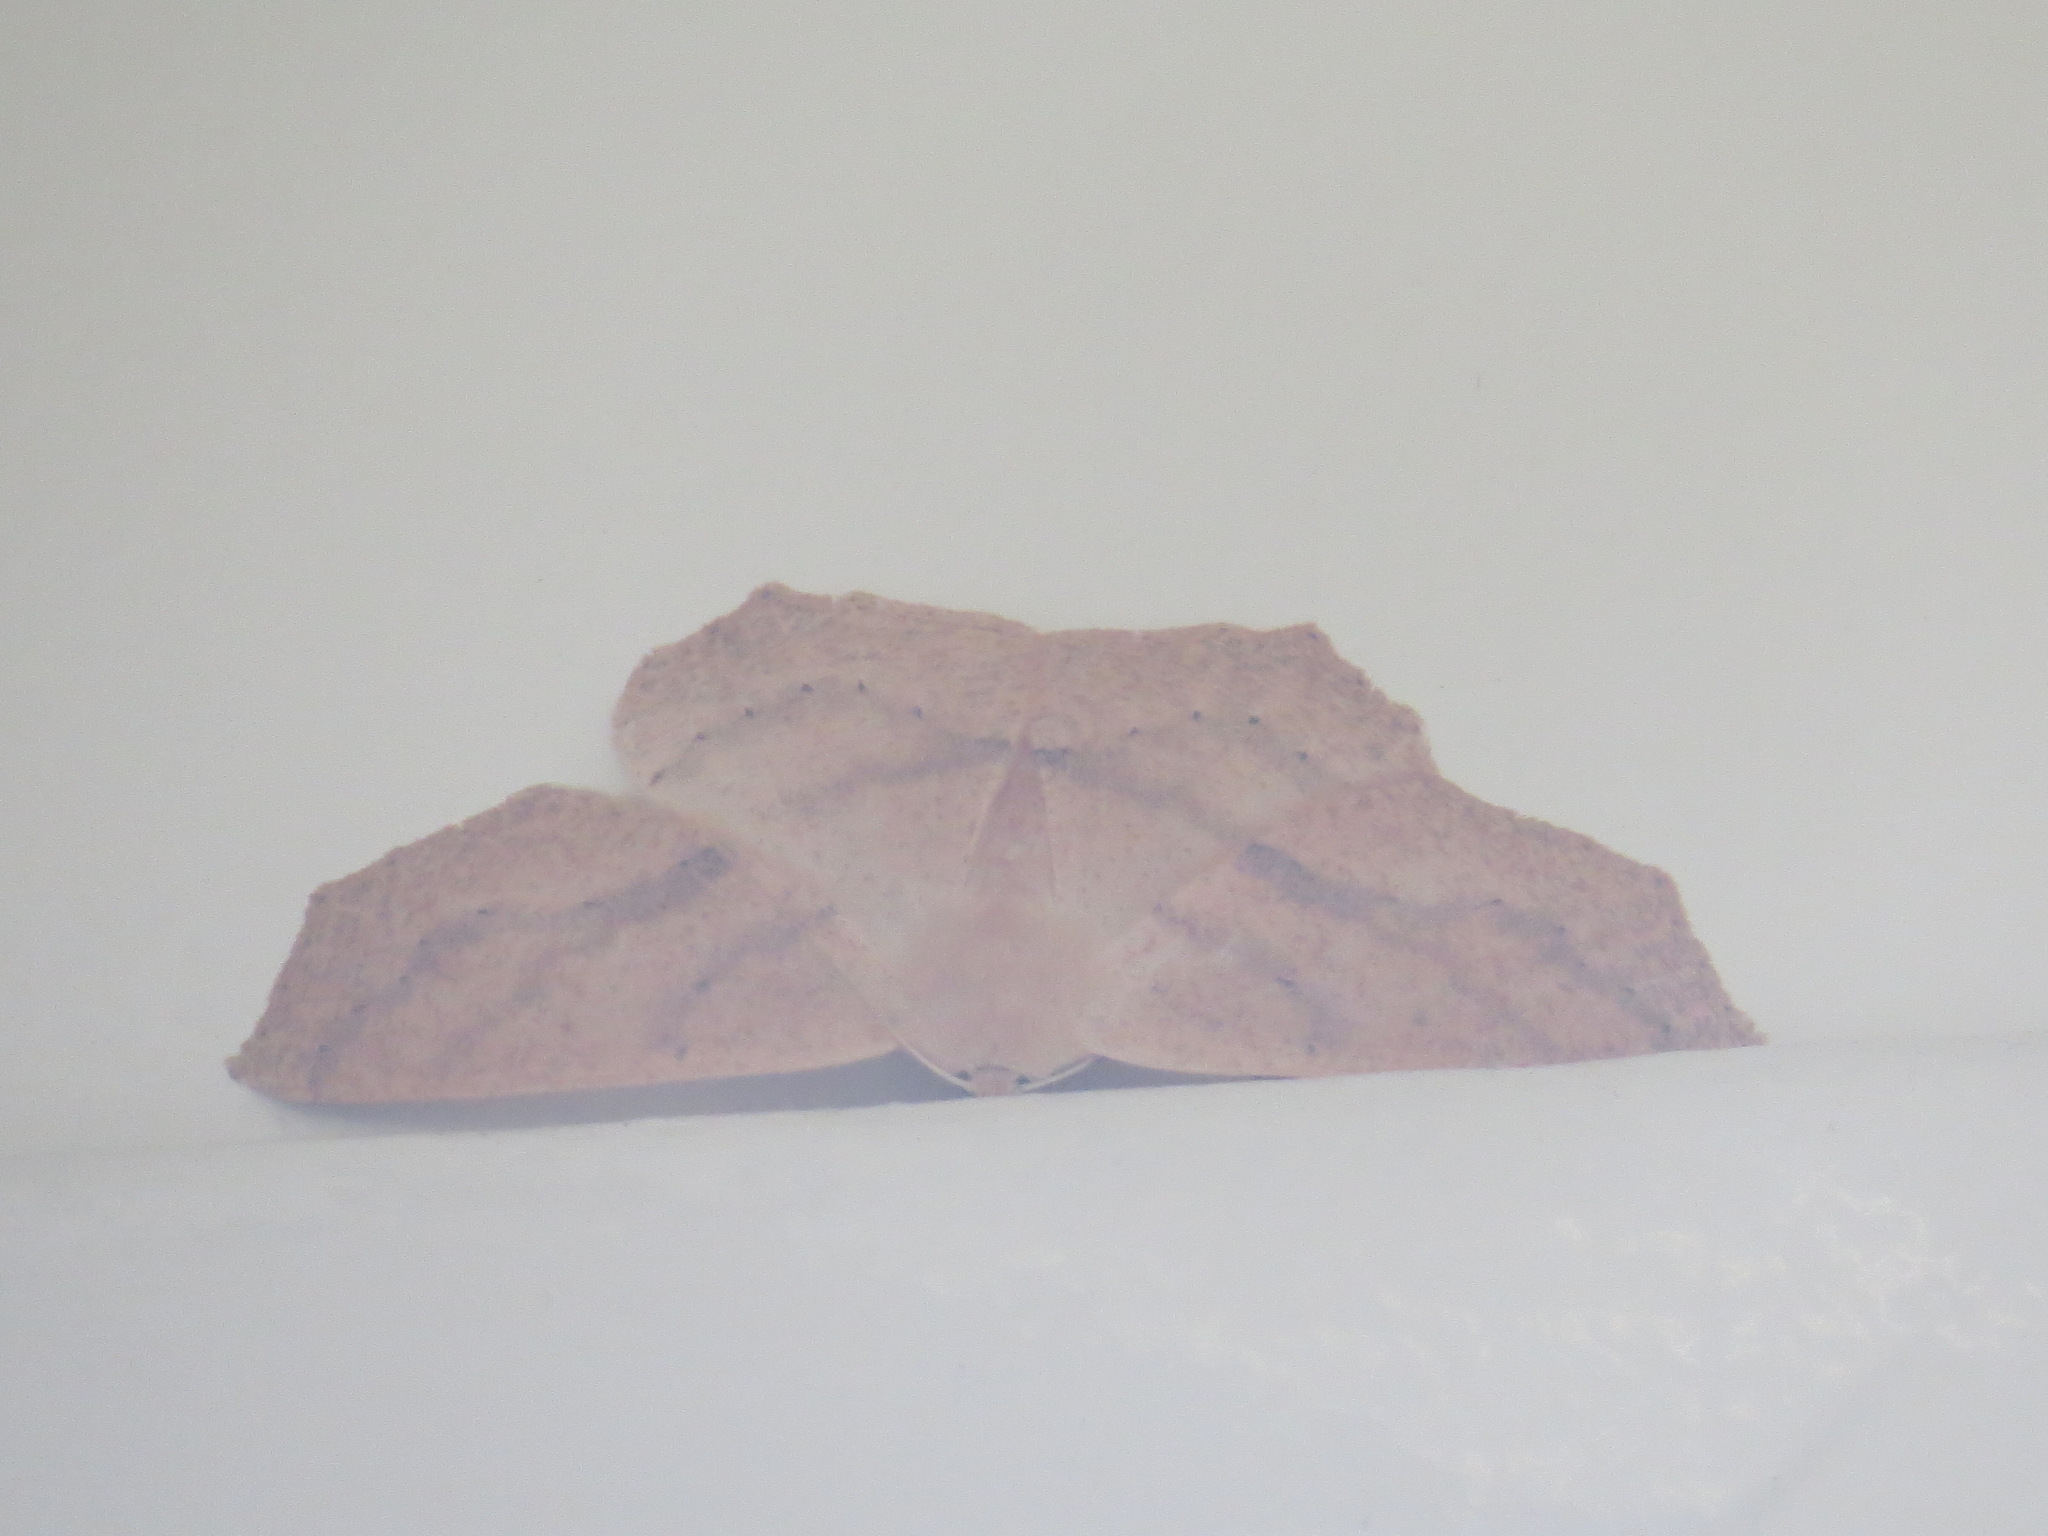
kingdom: Animalia
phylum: Arthropoda
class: Insecta
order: Lepidoptera
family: Geometridae
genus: Sabulodes
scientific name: Sabulodes aegrotata
